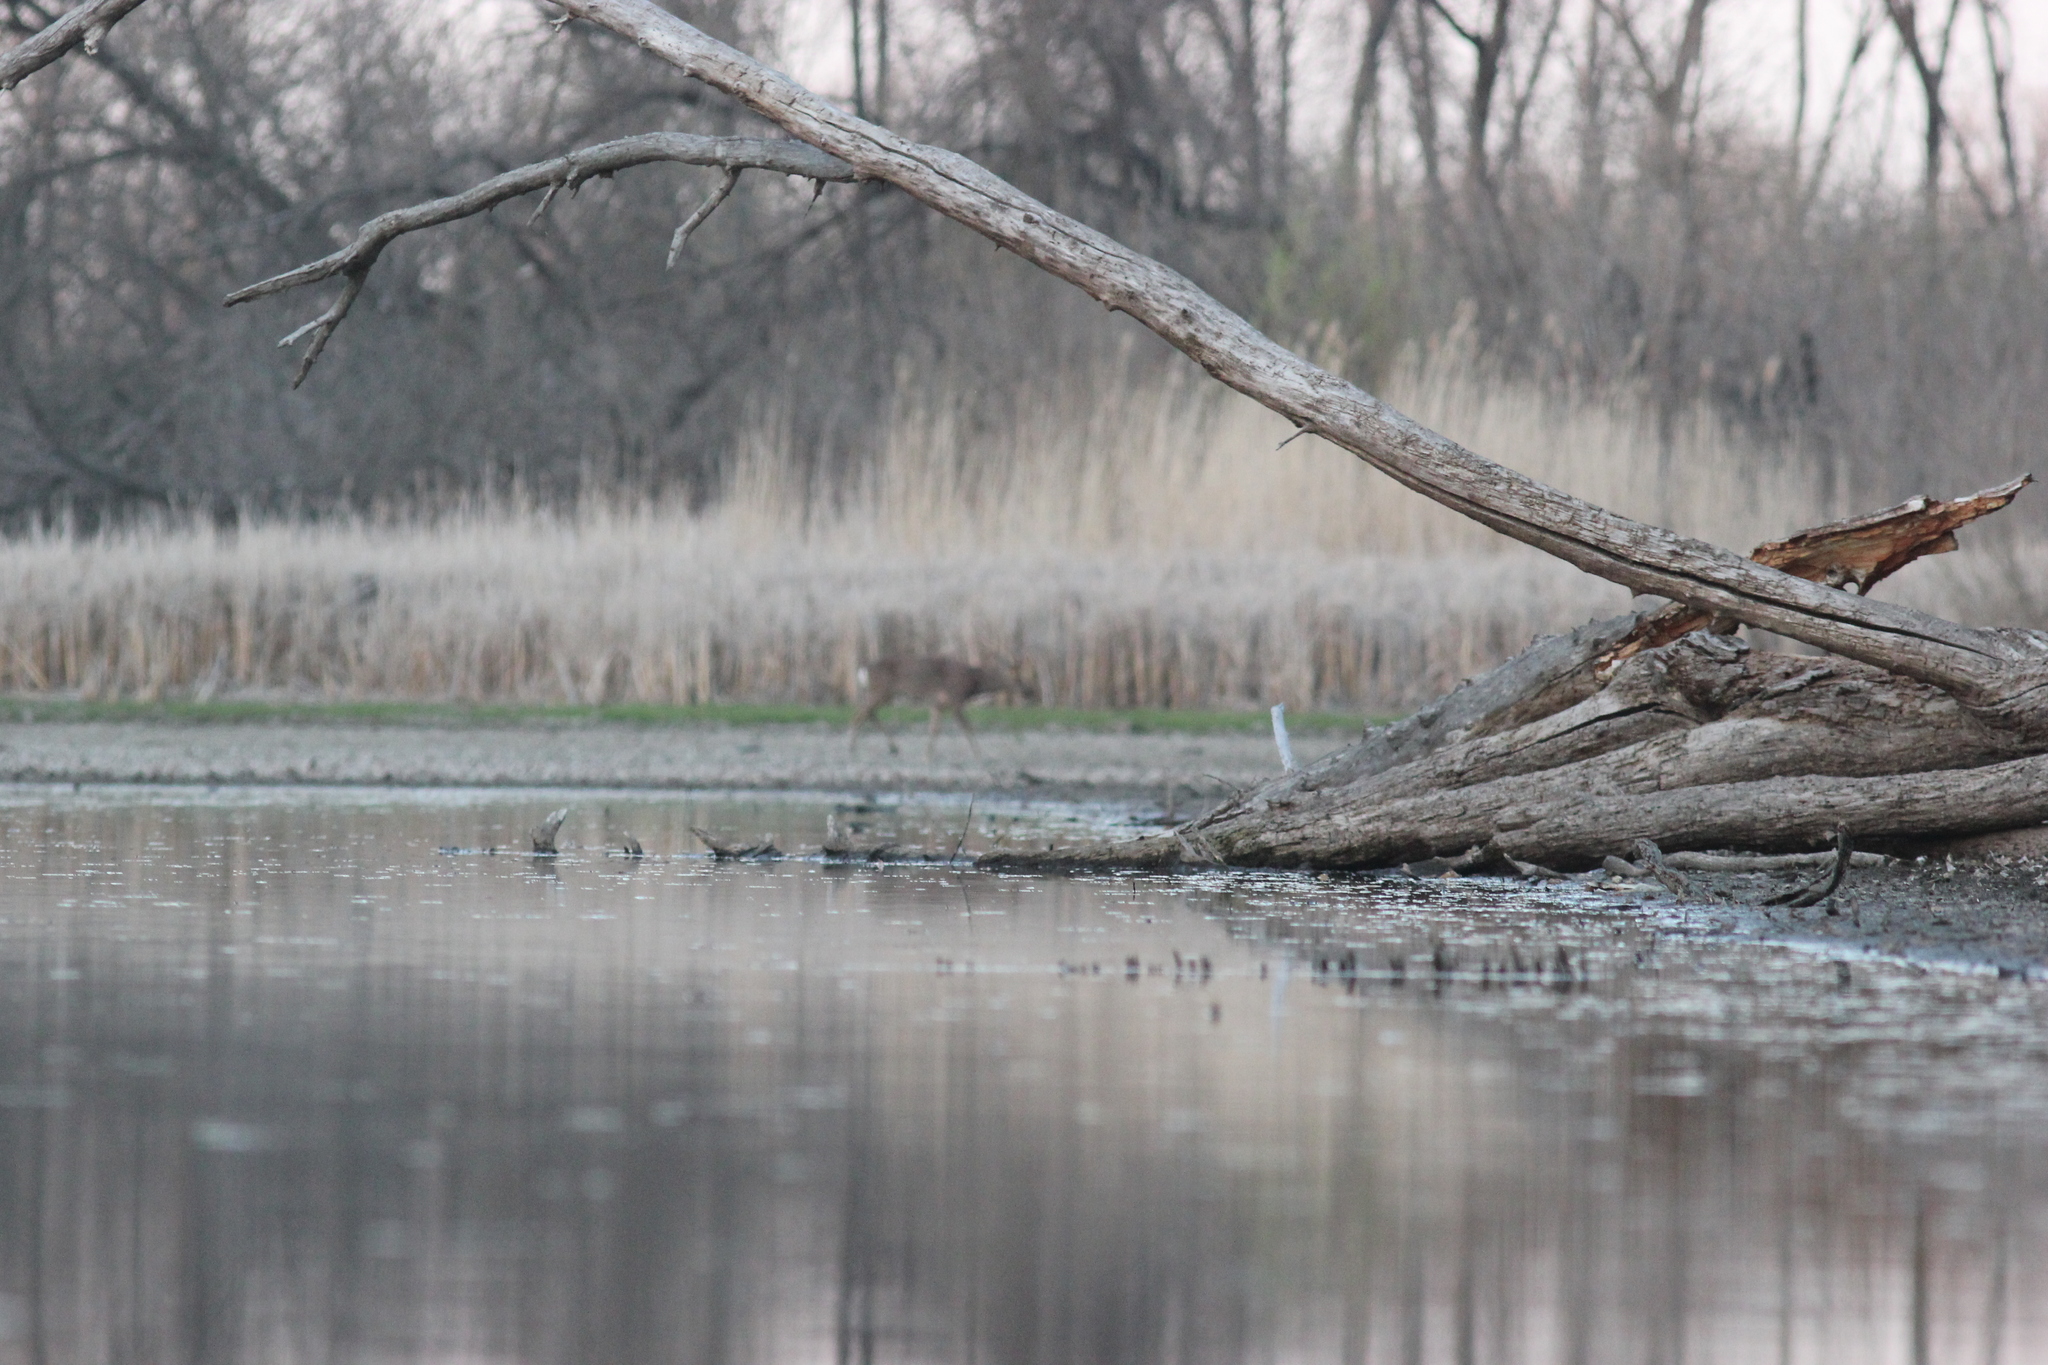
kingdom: Animalia
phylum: Chordata
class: Mammalia
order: Artiodactyla
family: Cervidae
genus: Capreolus
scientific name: Capreolus pygargus
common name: Siberian roe
